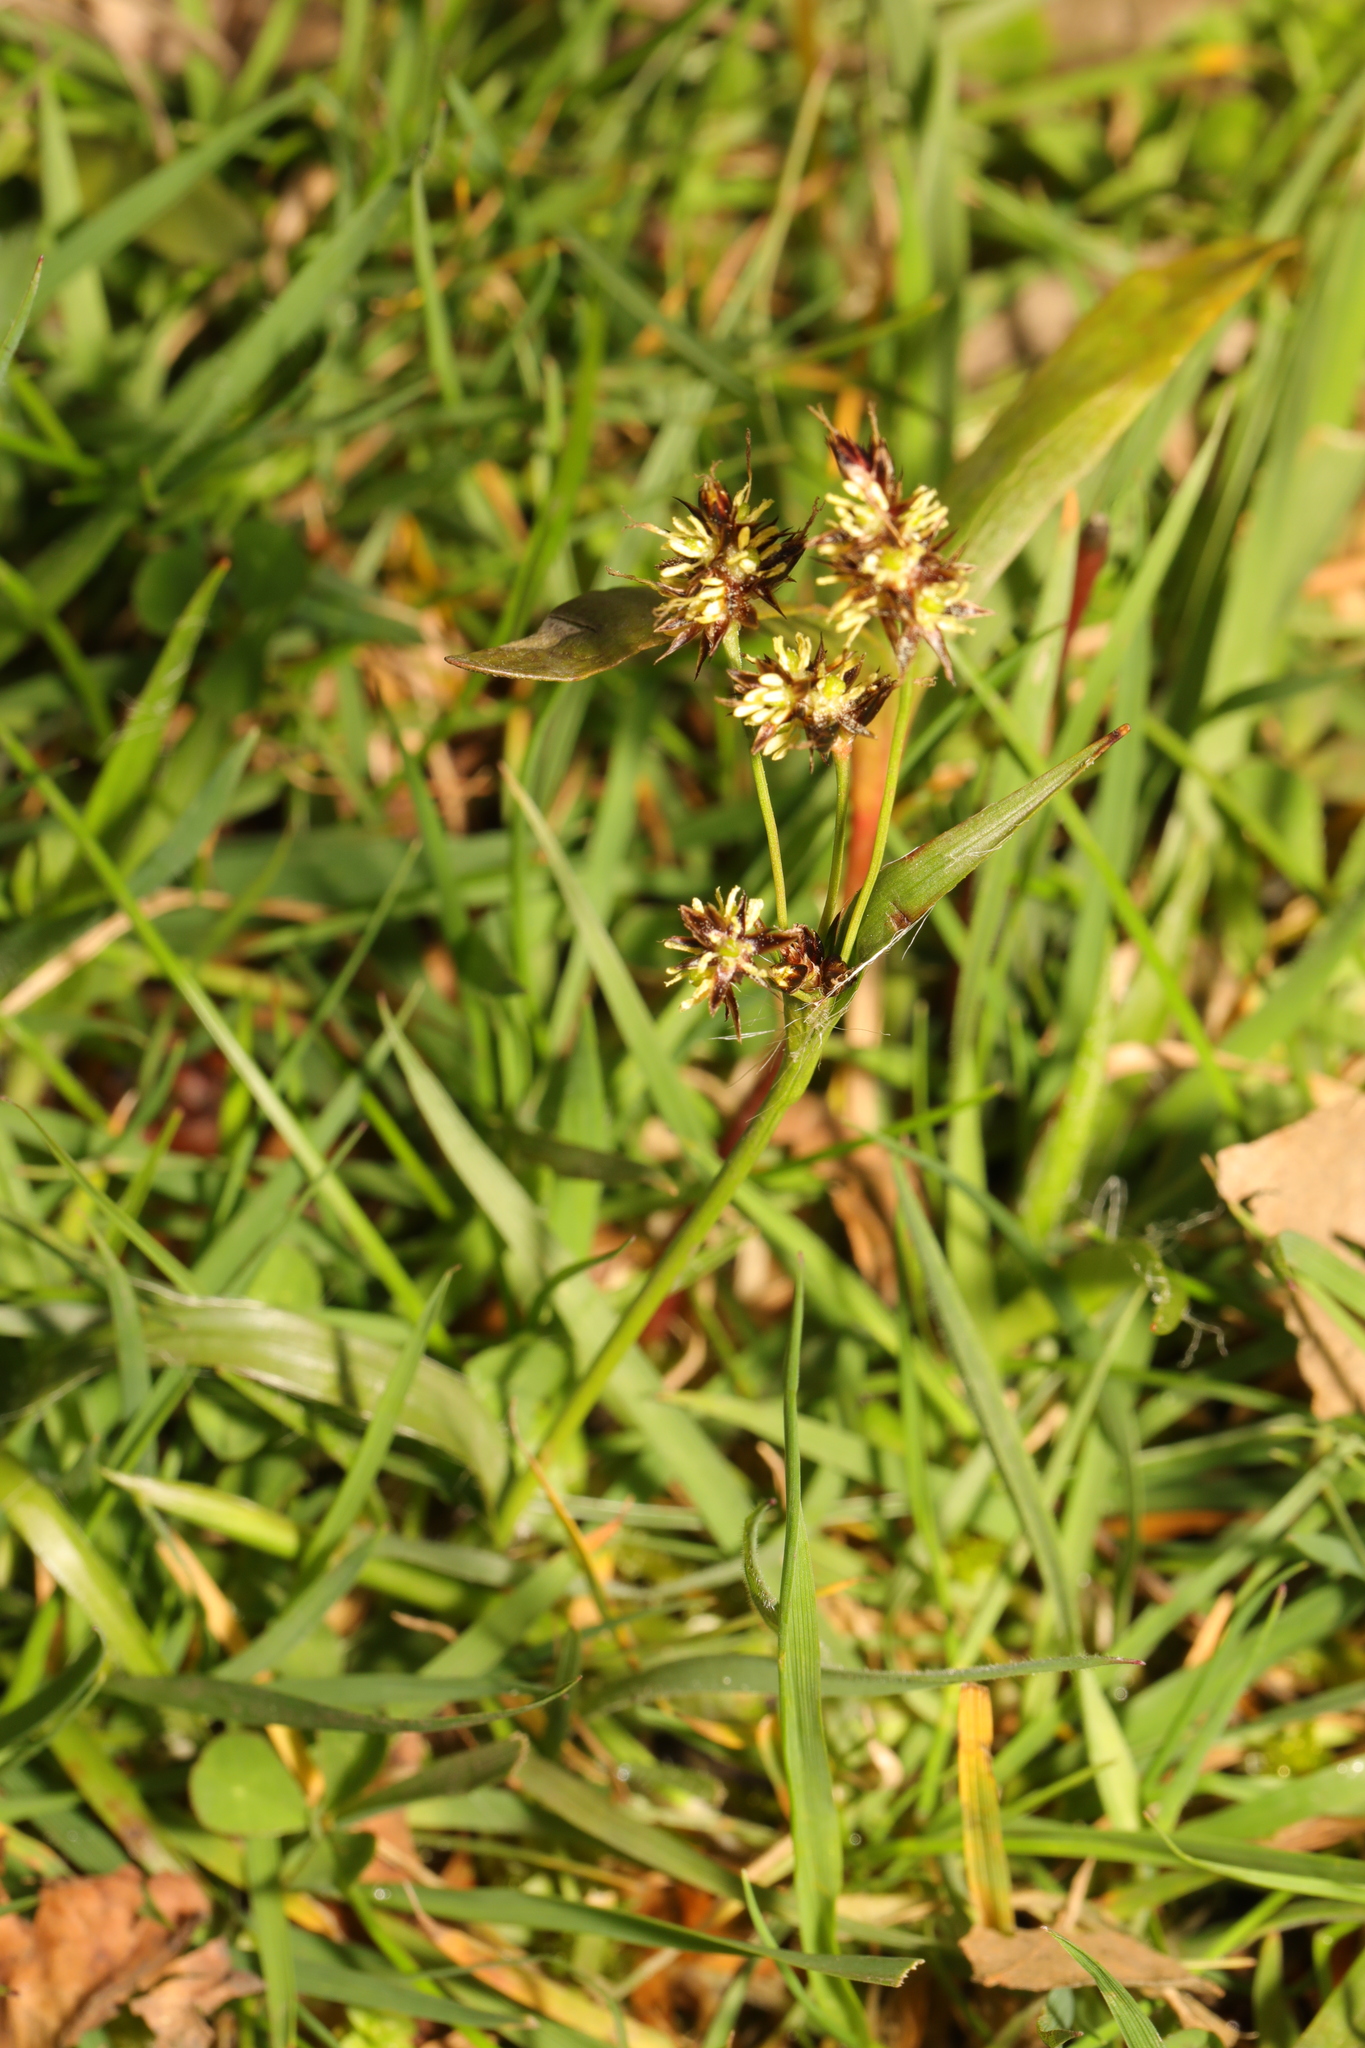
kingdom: Plantae
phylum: Tracheophyta
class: Liliopsida
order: Poales
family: Juncaceae
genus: Luzula
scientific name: Luzula campestris
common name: Field wood-rush
